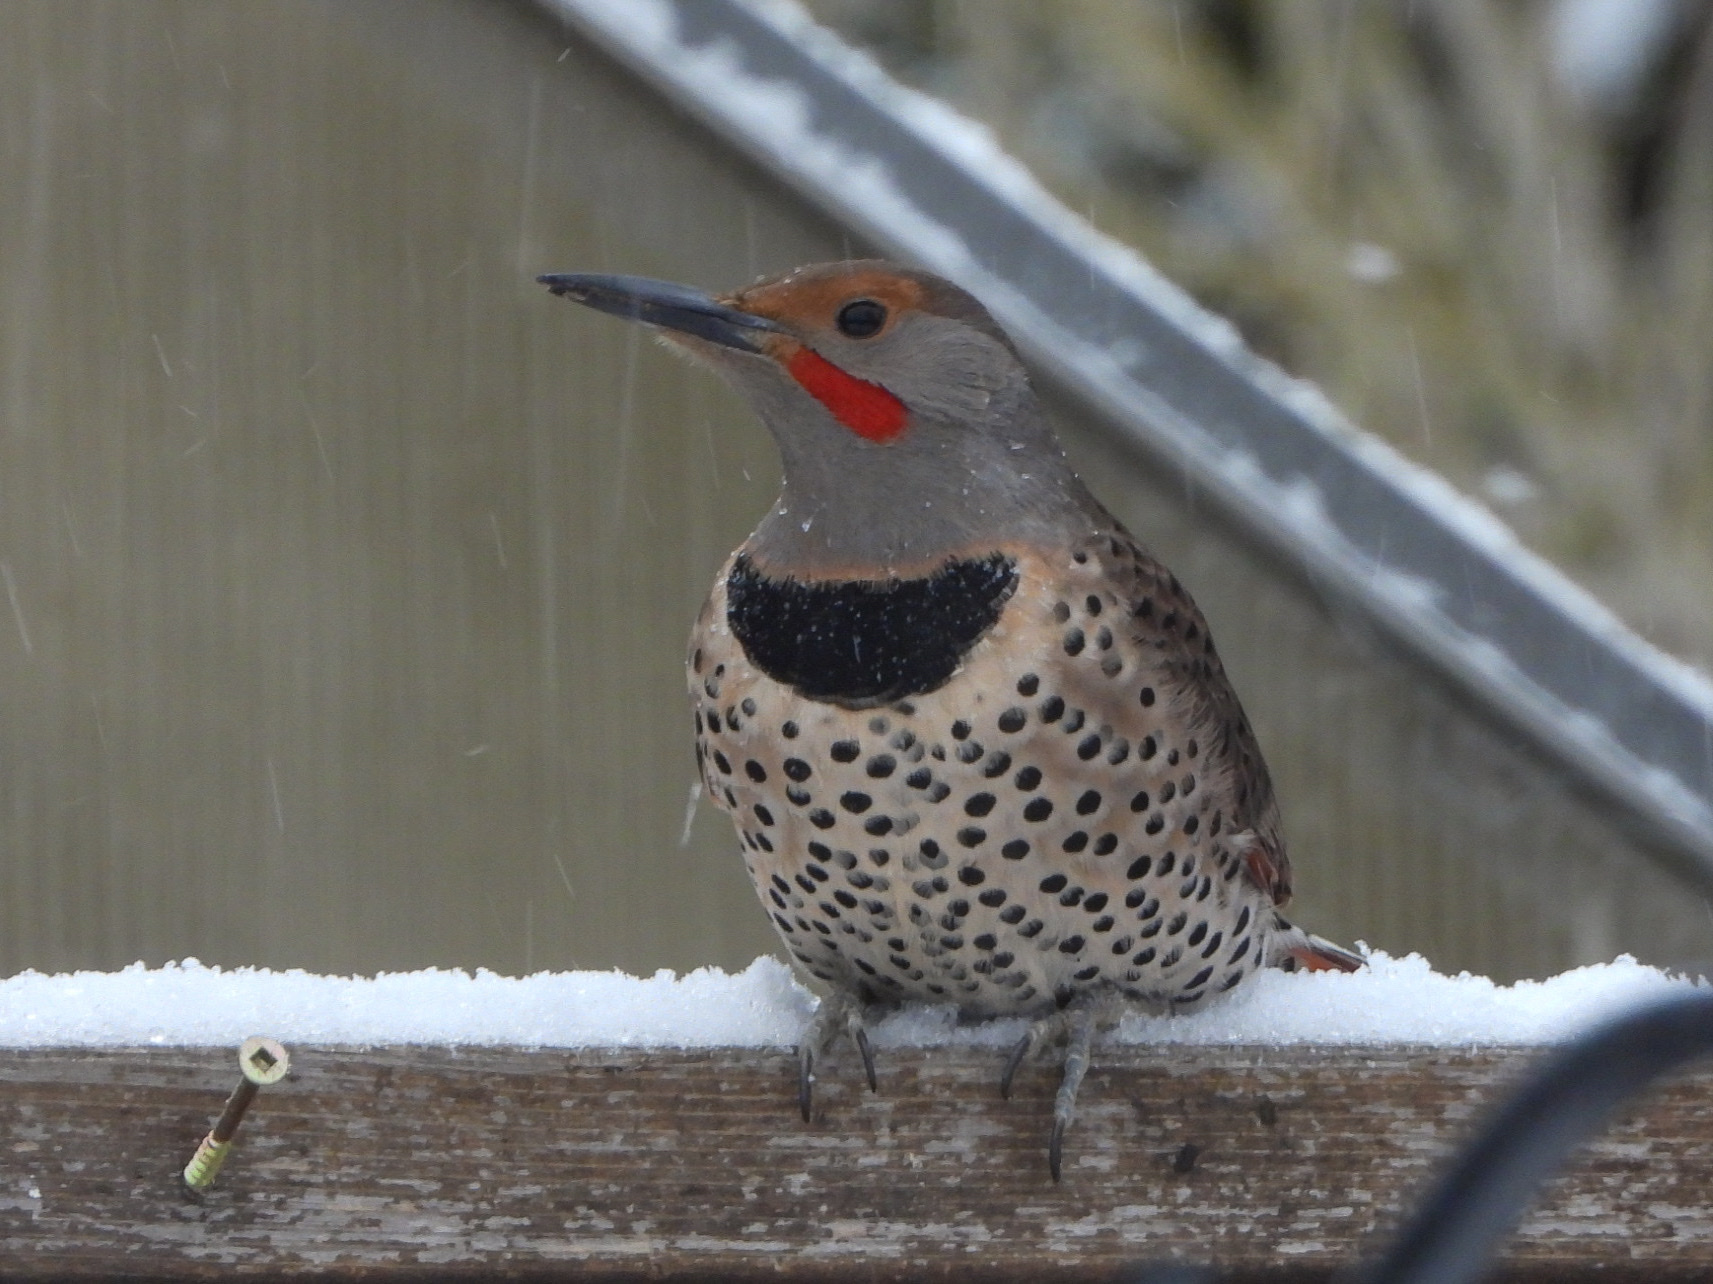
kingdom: Animalia
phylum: Chordata
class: Aves
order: Piciformes
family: Picidae
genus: Colaptes
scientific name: Colaptes auratus
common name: Northern flicker
